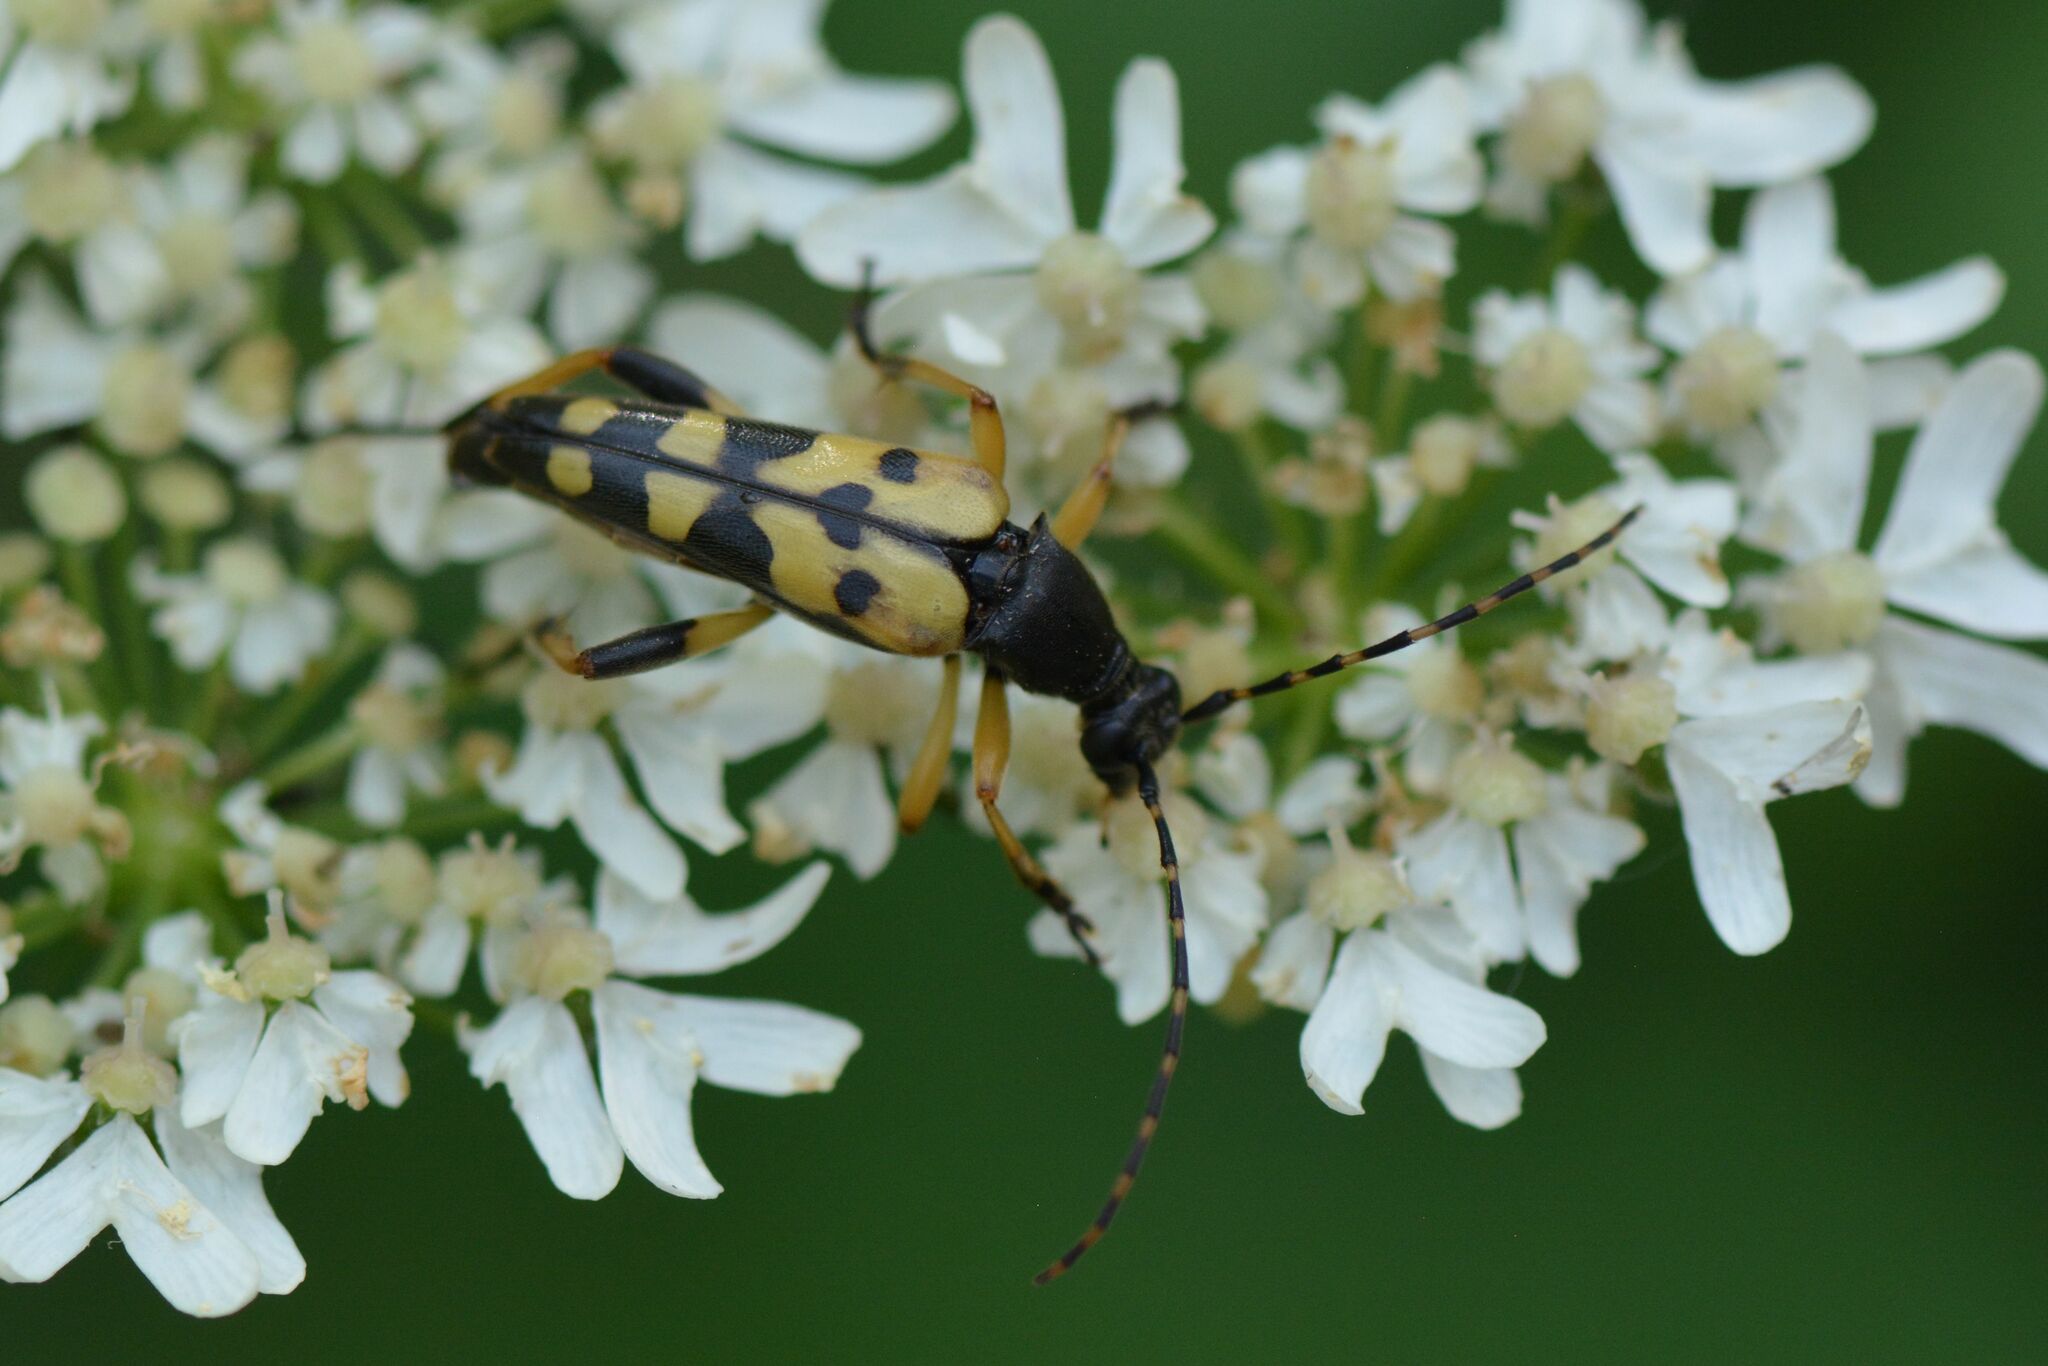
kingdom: Animalia
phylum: Arthropoda
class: Insecta
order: Coleoptera
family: Cerambycidae
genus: Rutpela
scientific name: Rutpela maculata
